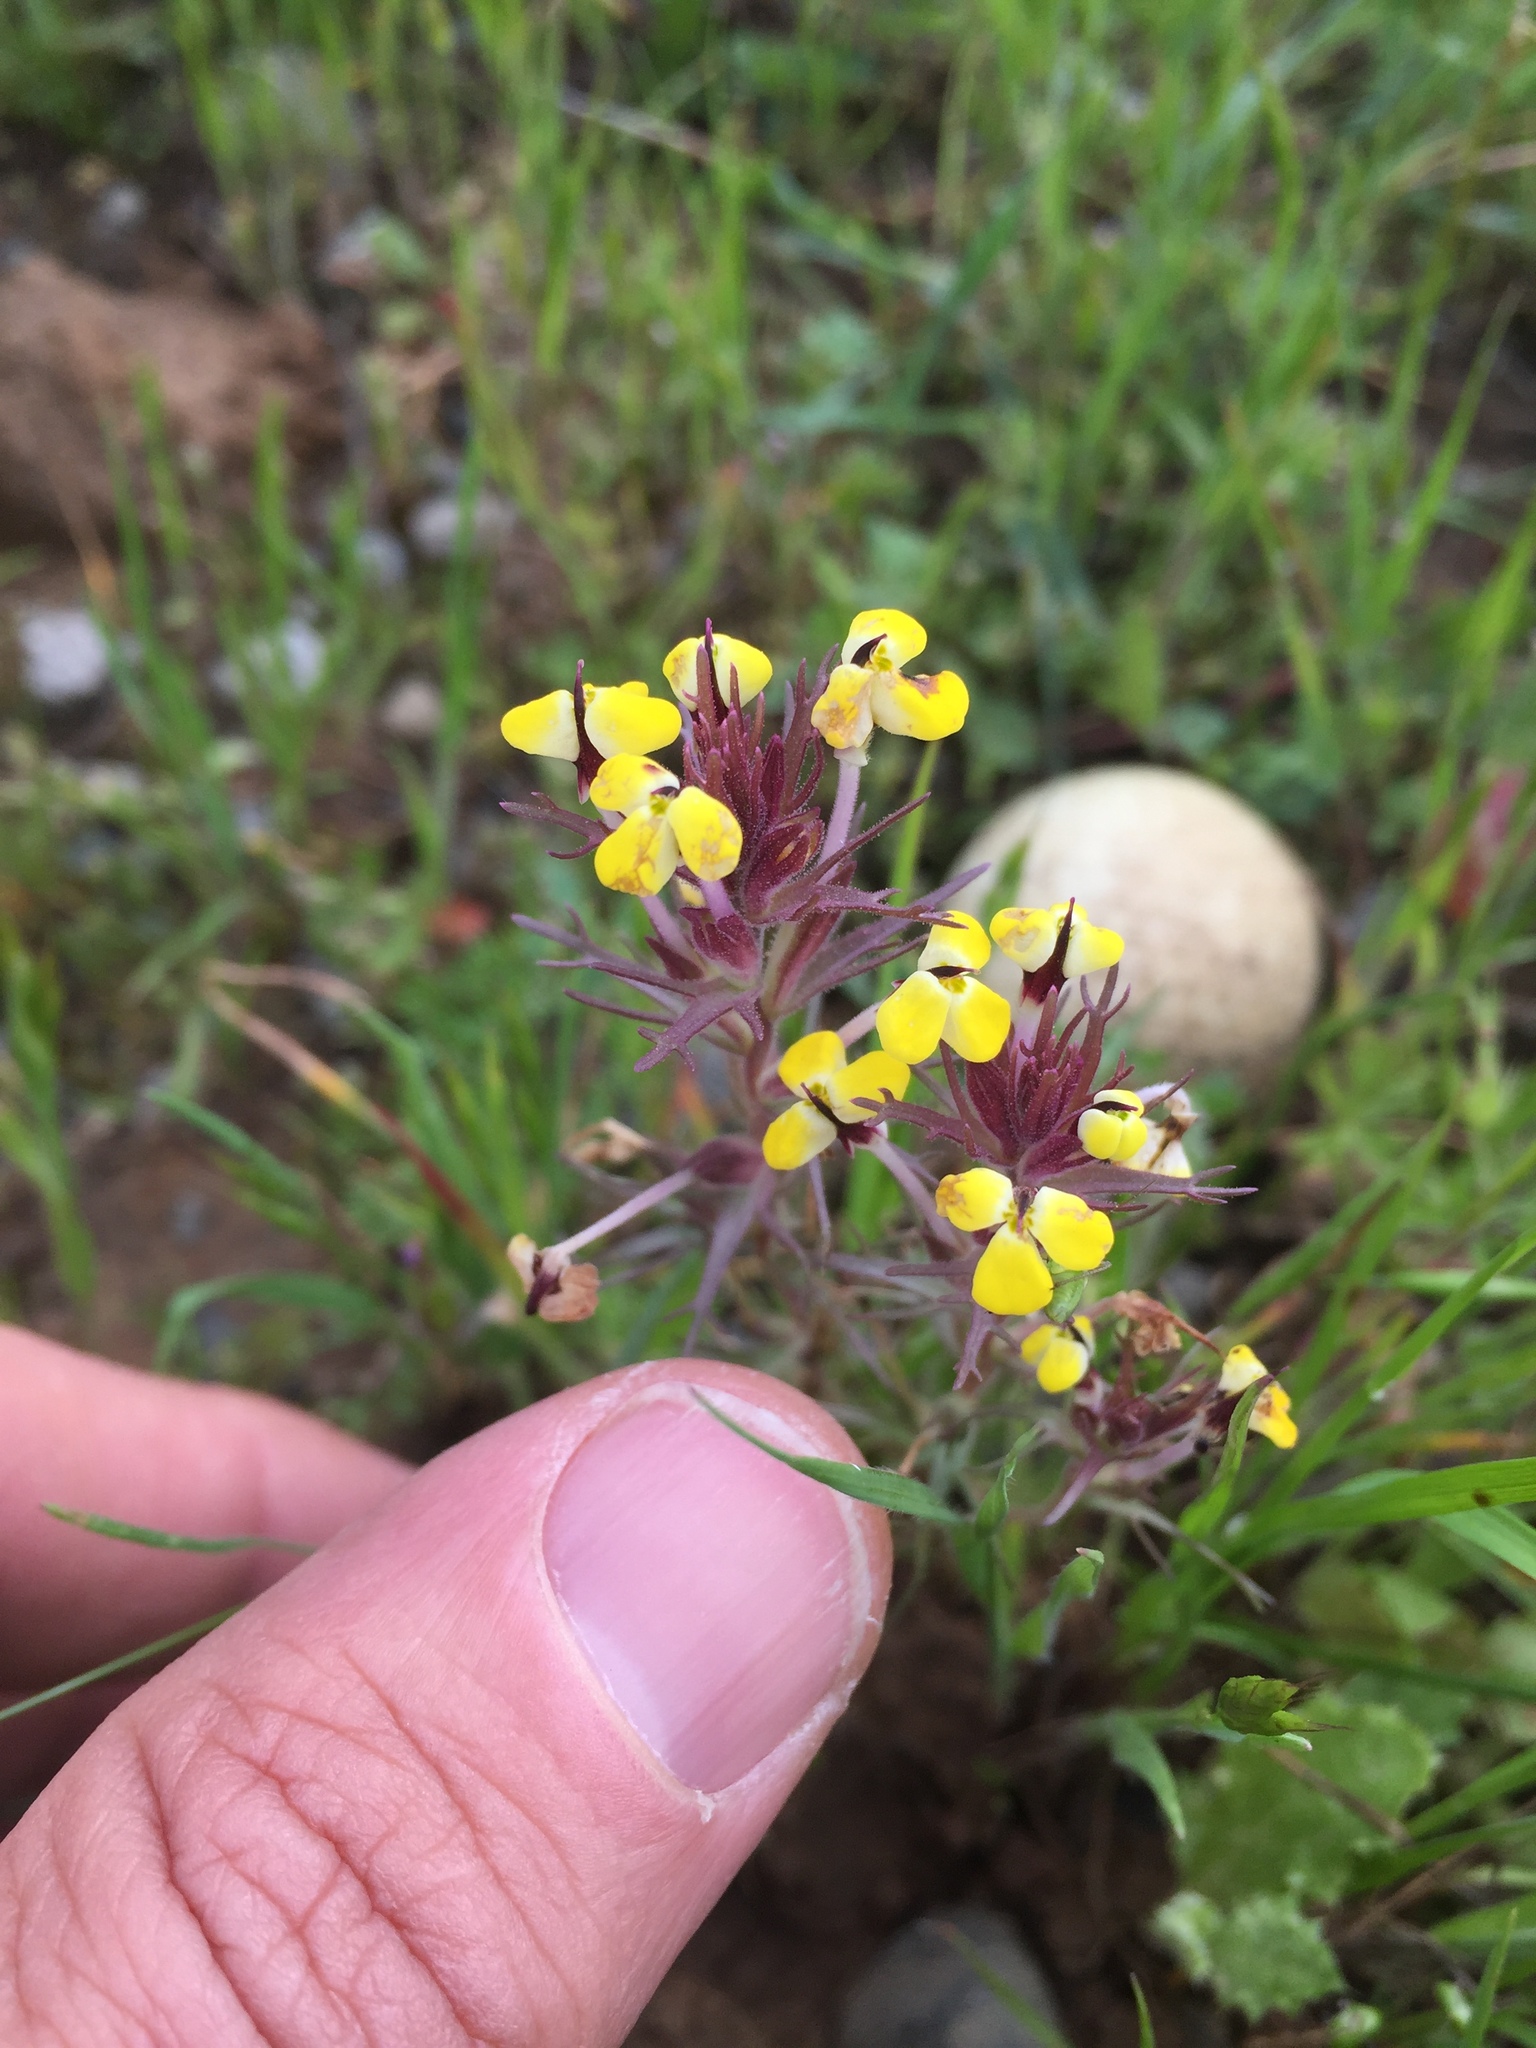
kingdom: Plantae
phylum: Tracheophyta
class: Magnoliopsida
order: Lamiales
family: Orobanchaceae
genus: Triphysaria
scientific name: Triphysaria eriantha
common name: Johnny-tuck
